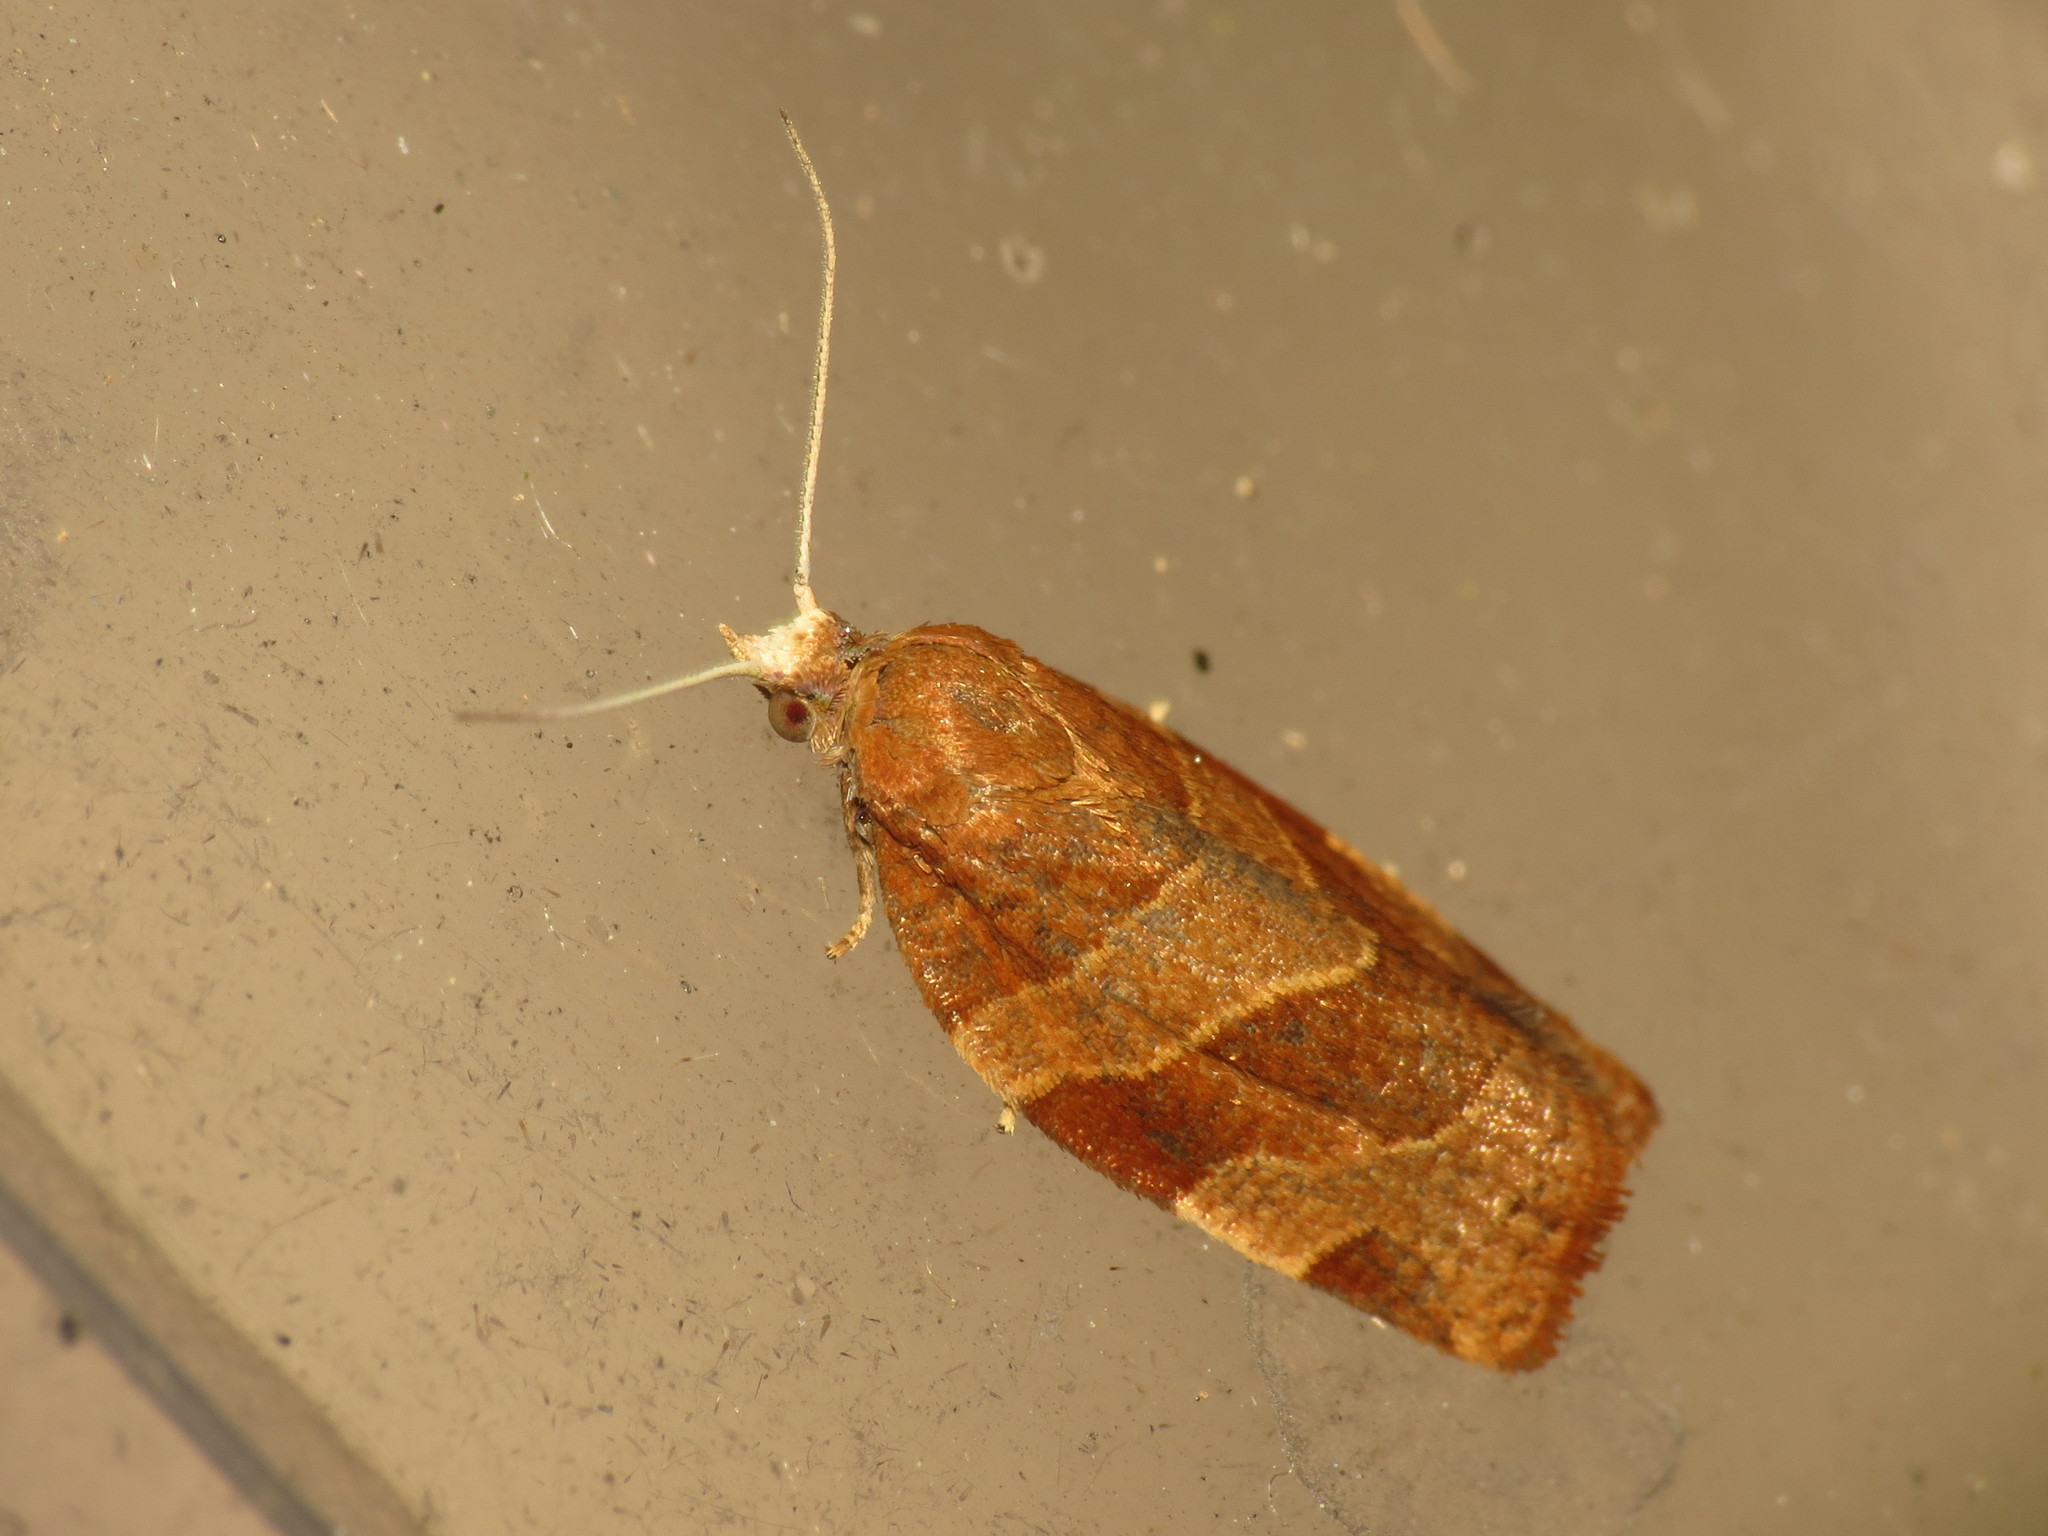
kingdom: Animalia
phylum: Arthropoda
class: Insecta
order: Lepidoptera
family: Tortricidae
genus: Pandemis
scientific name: Pandemis cinnamomeana
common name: White-faced twist
